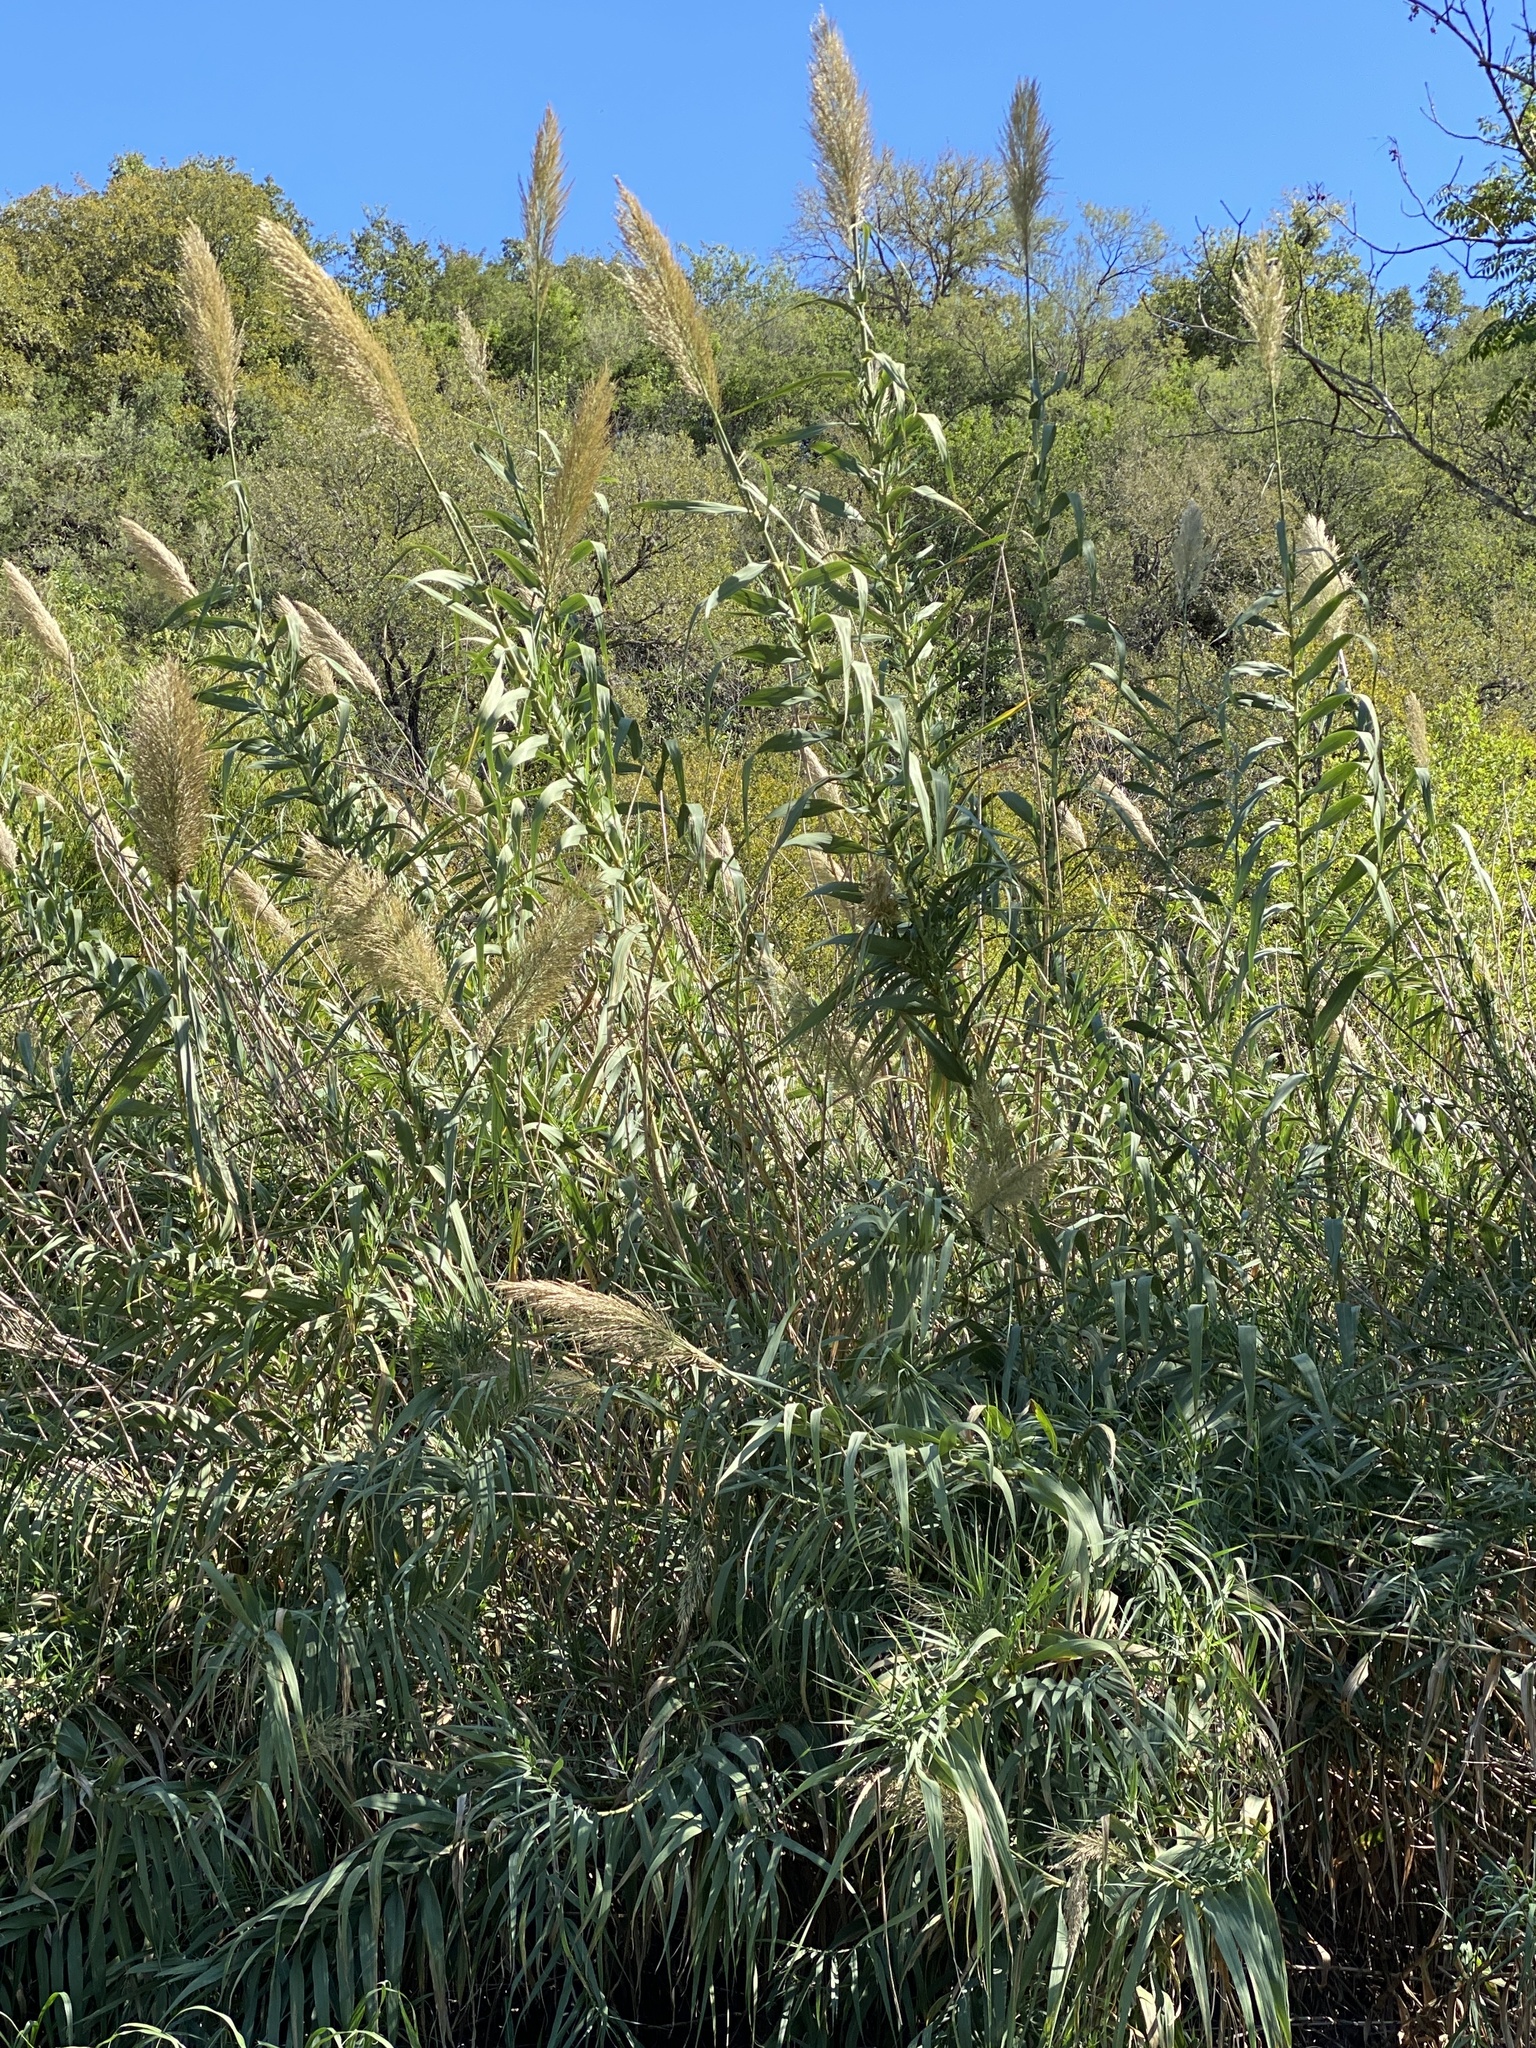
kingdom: Plantae
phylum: Tracheophyta
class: Liliopsida
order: Poales
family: Poaceae
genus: Arundo
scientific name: Arundo donax
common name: Giant reed
